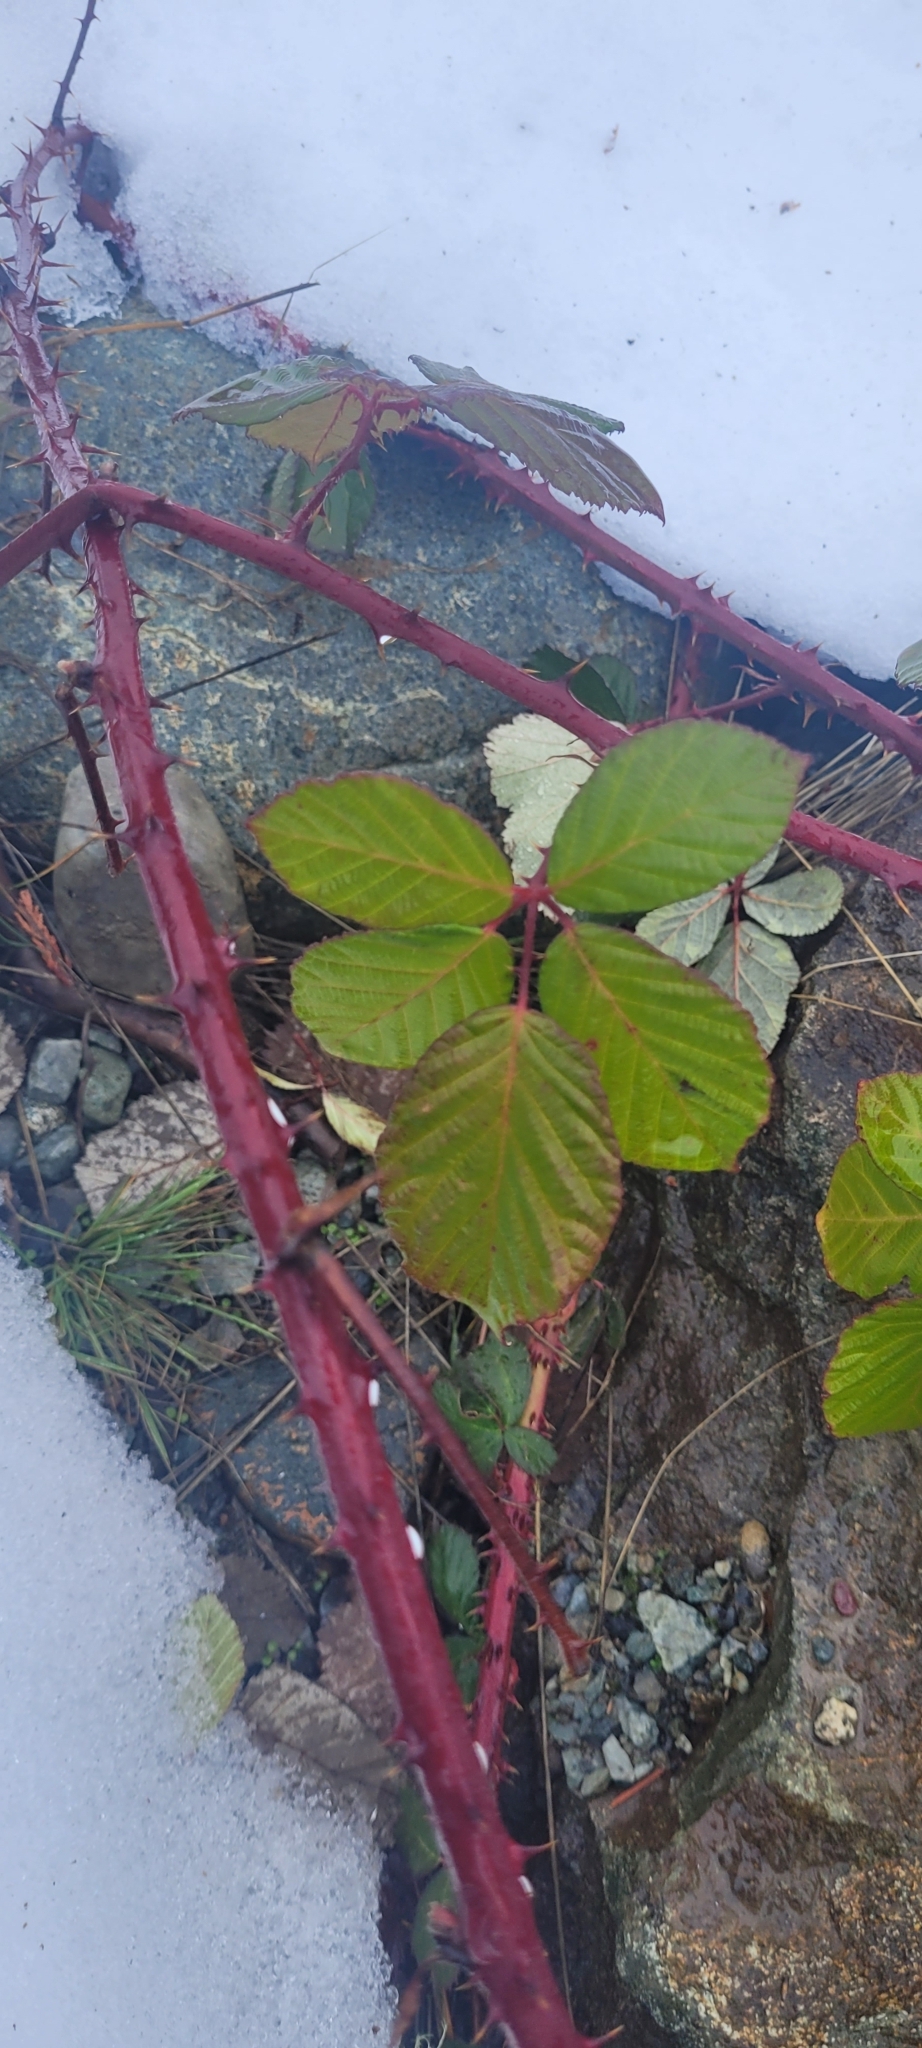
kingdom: Plantae
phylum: Tracheophyta
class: Magnoliopsida
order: Rosales
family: Rosaceae
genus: Rubus
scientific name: Rubus armeniacus
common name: Himalayan blackberry
